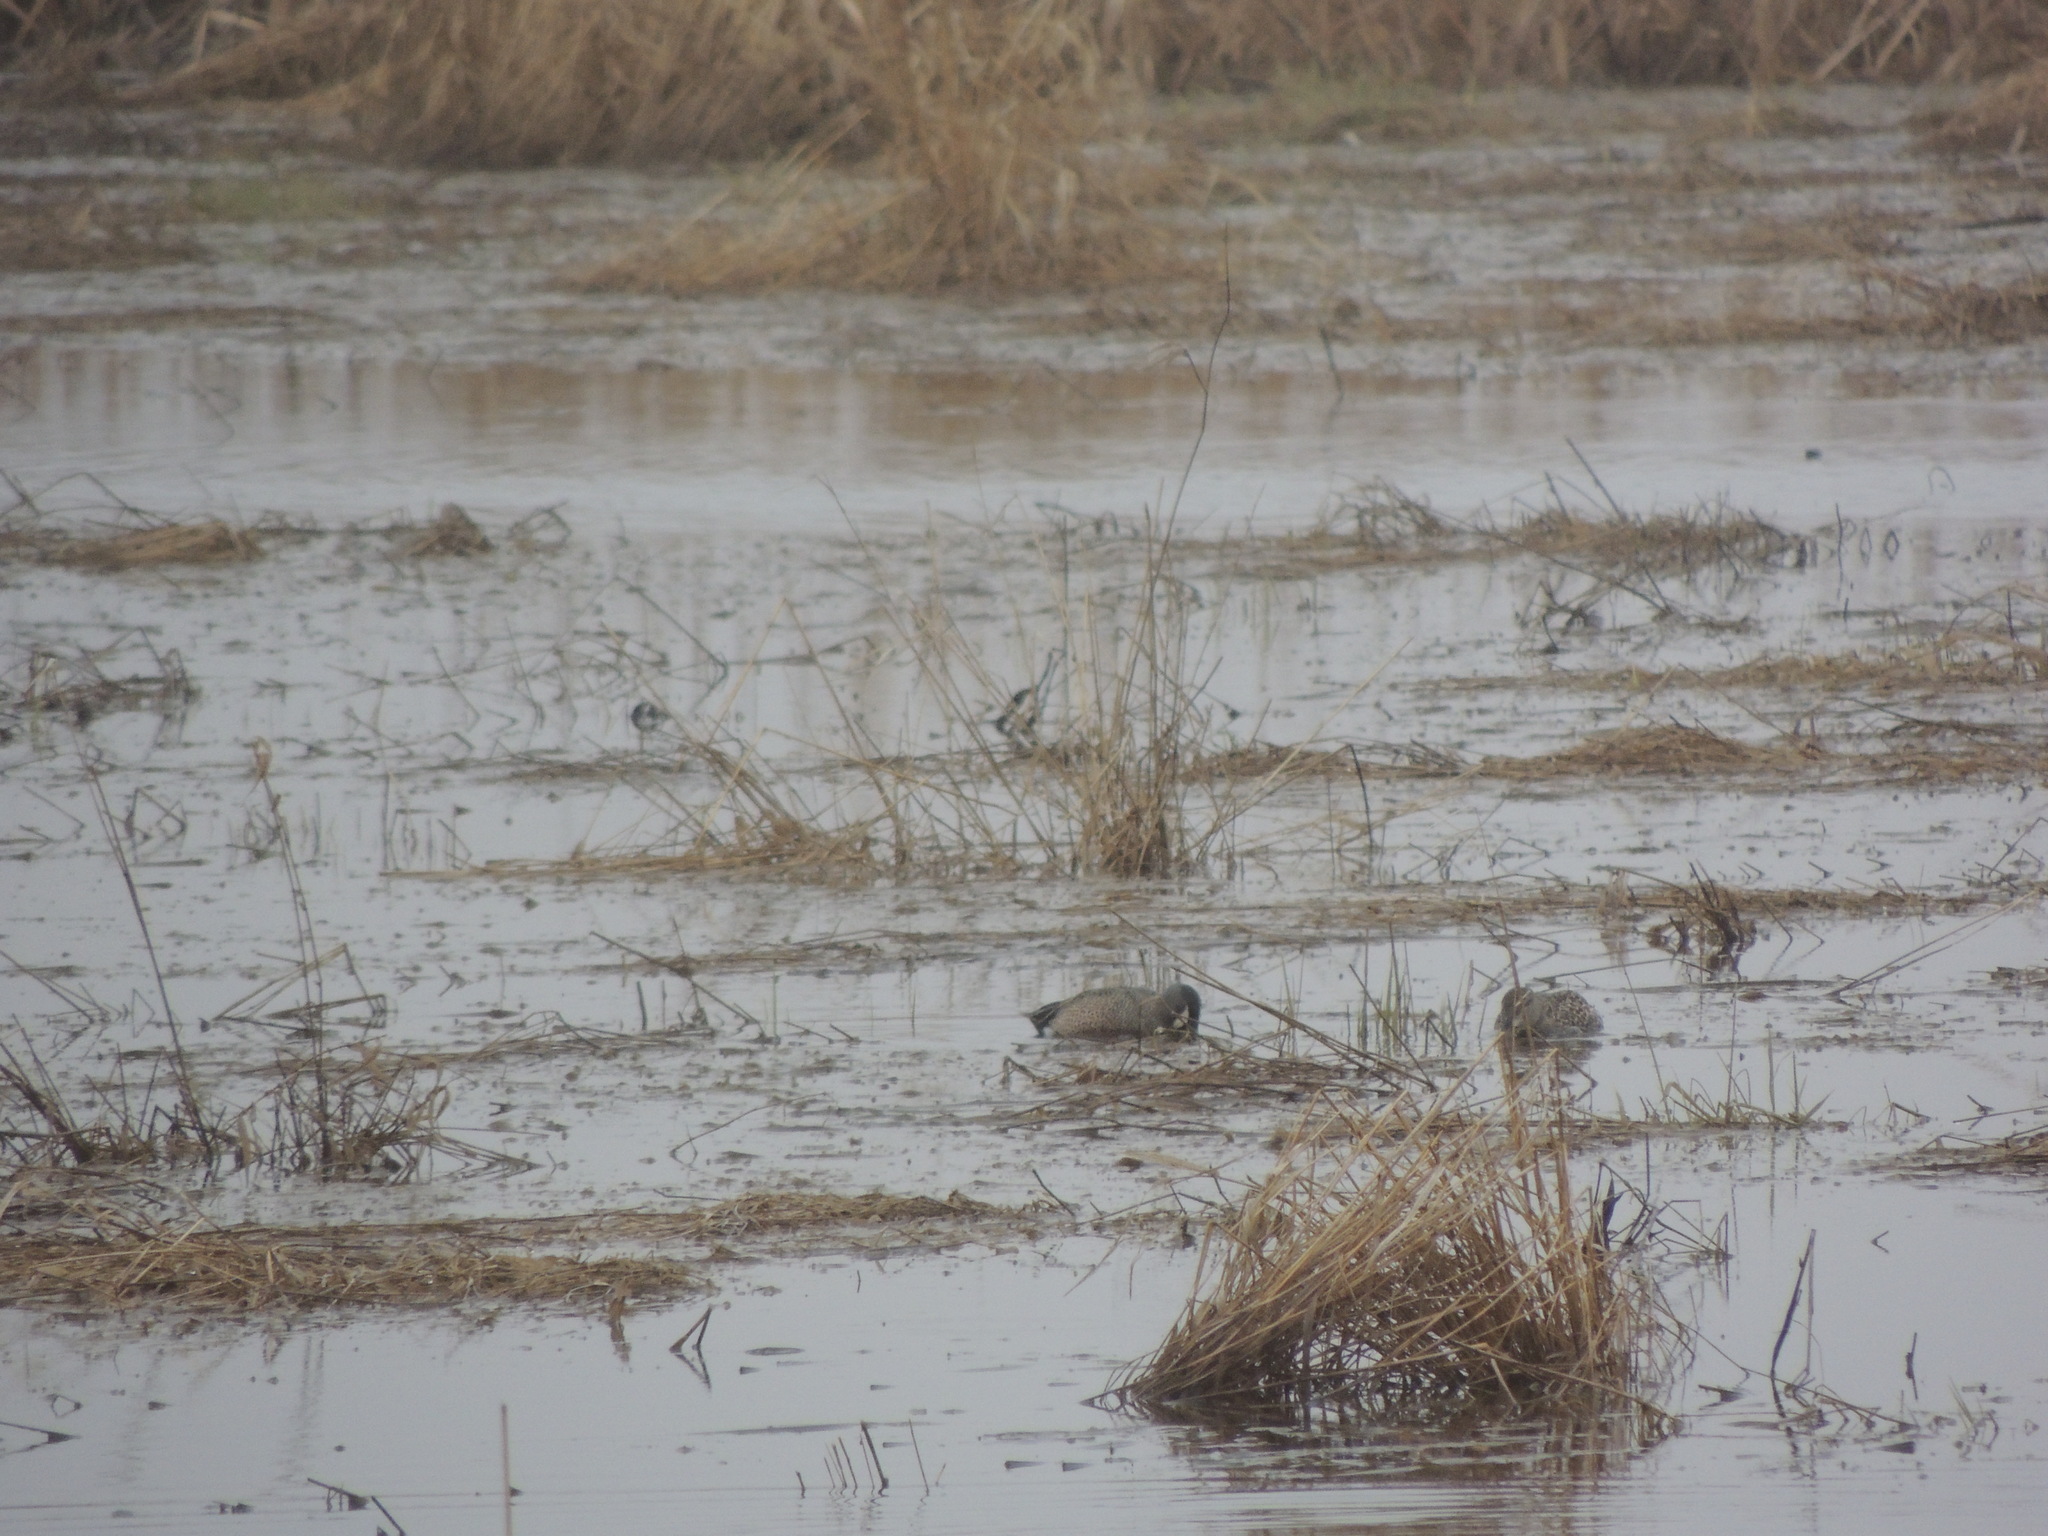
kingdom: Animalia
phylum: Chordata
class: Aves
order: Anseriformes
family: Anatidae
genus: Spatula
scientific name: Spatula discors
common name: Blue-winged teal
